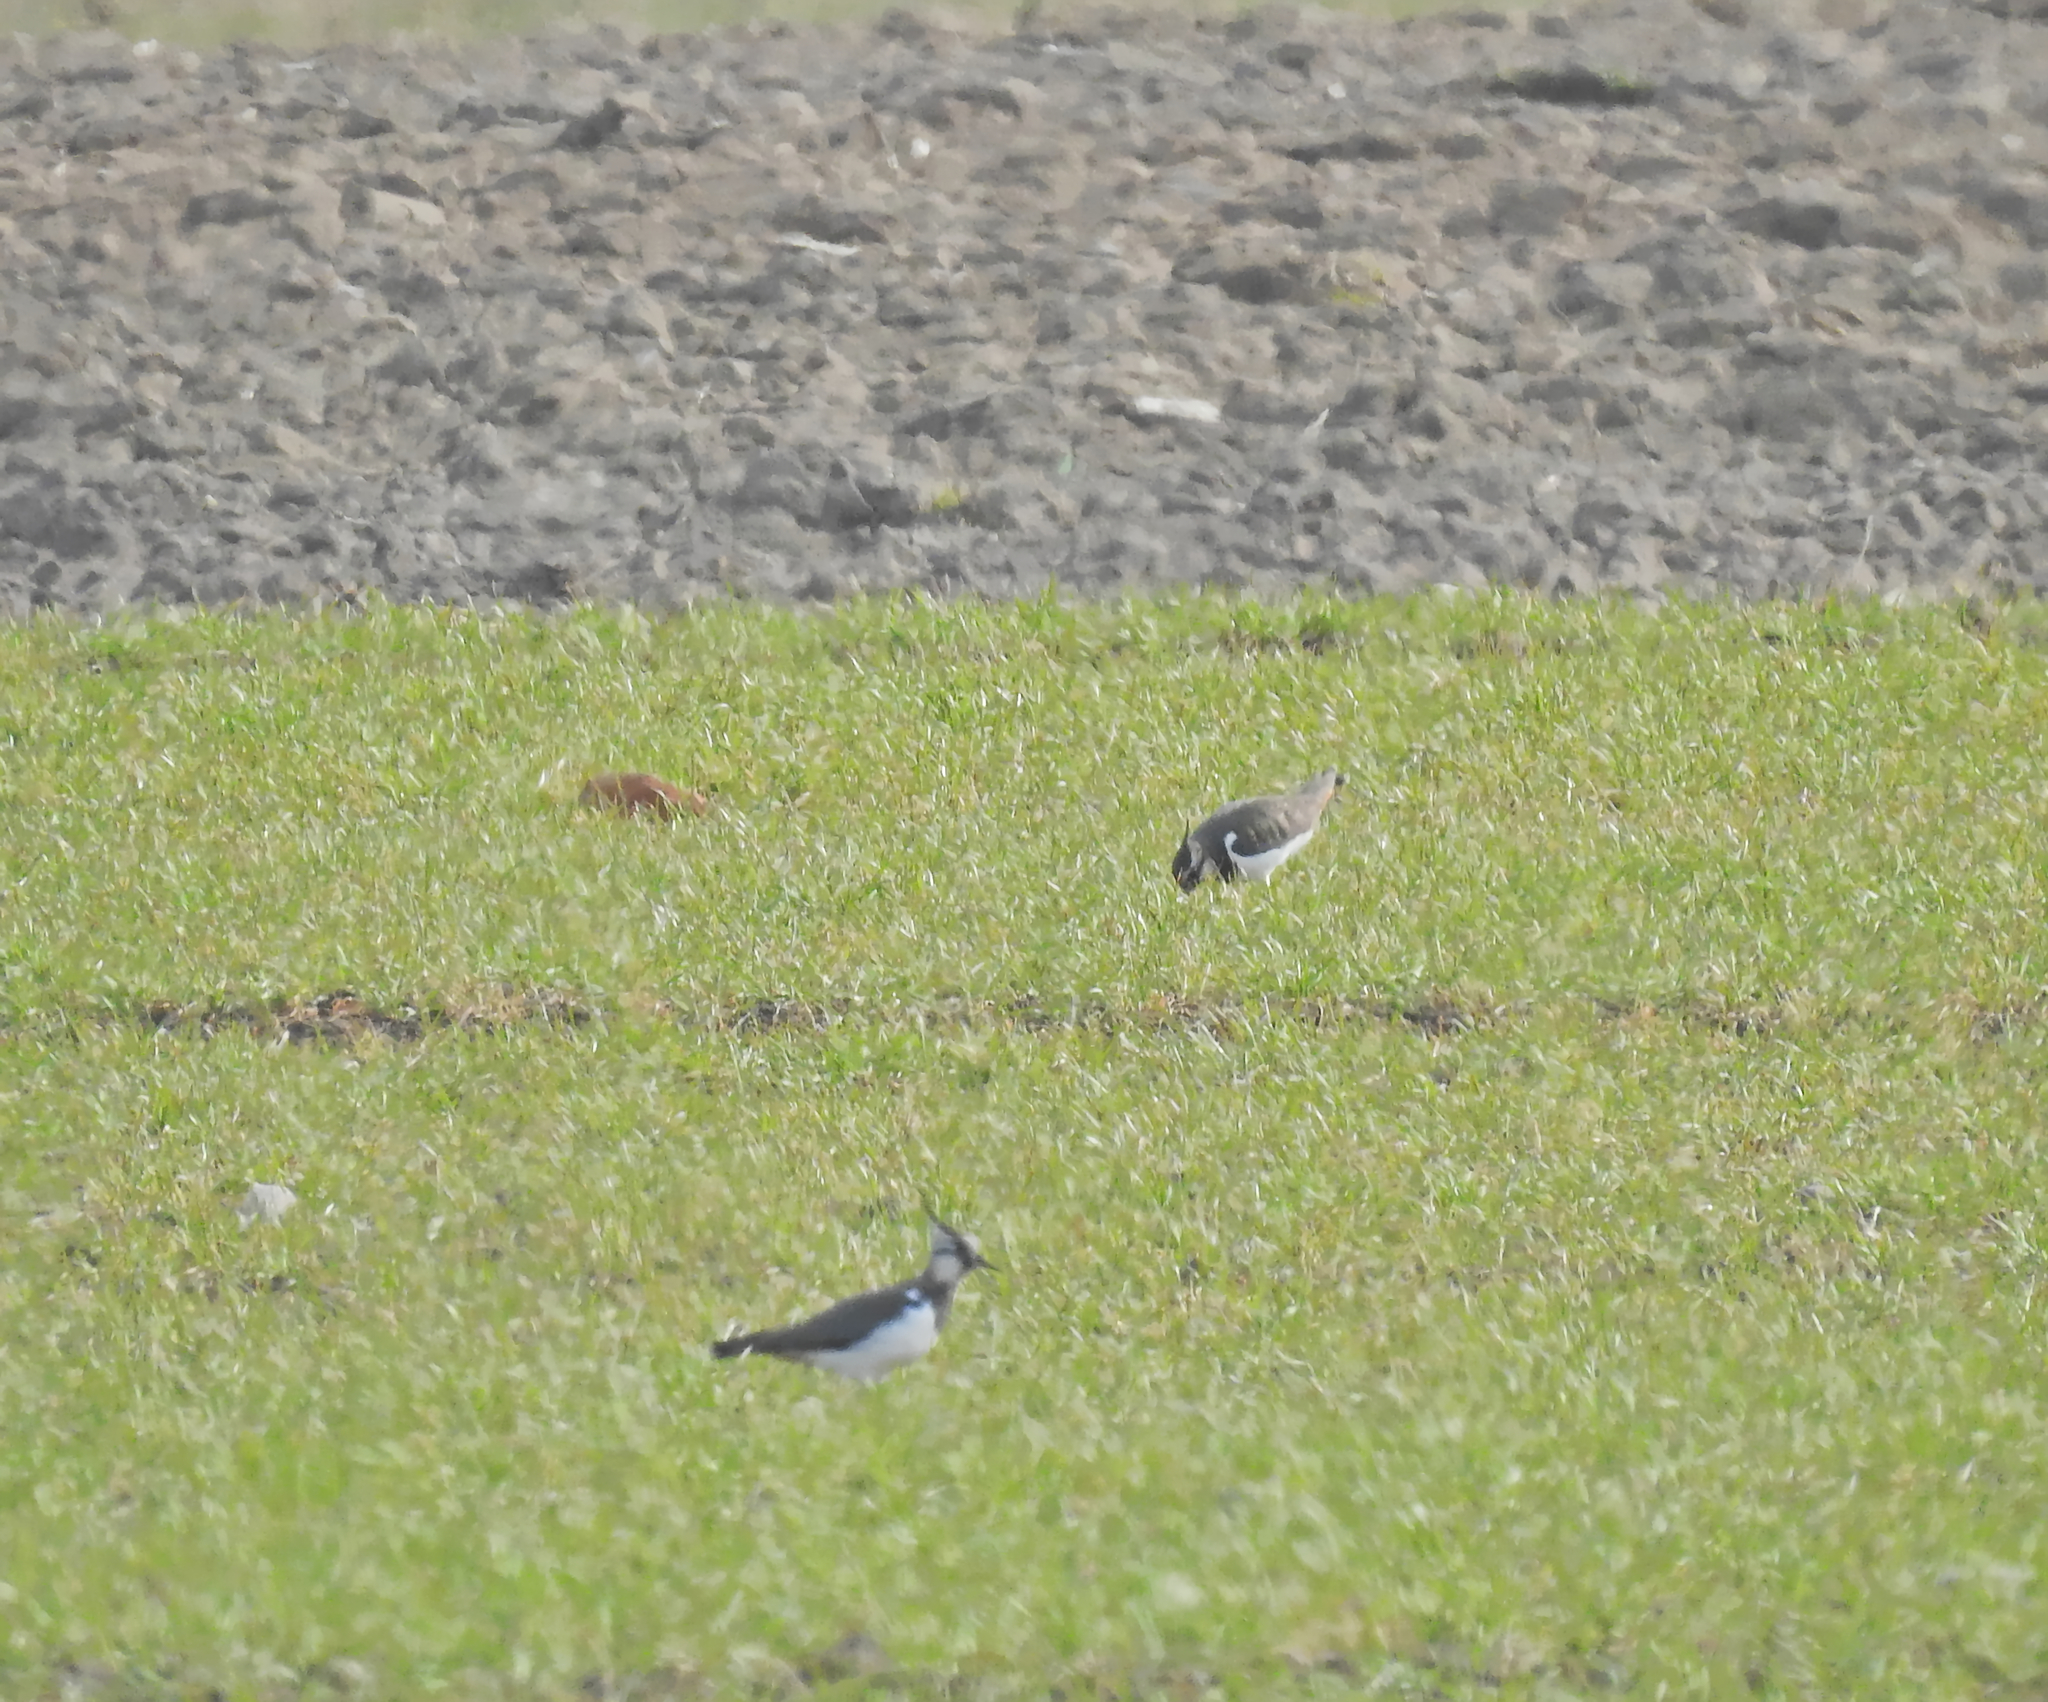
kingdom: Animalia
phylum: Chordata
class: Aves
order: Charadriiformes
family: Charadriidae
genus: Vanellus
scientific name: Vanellus vanellus
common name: Northern lapwing
